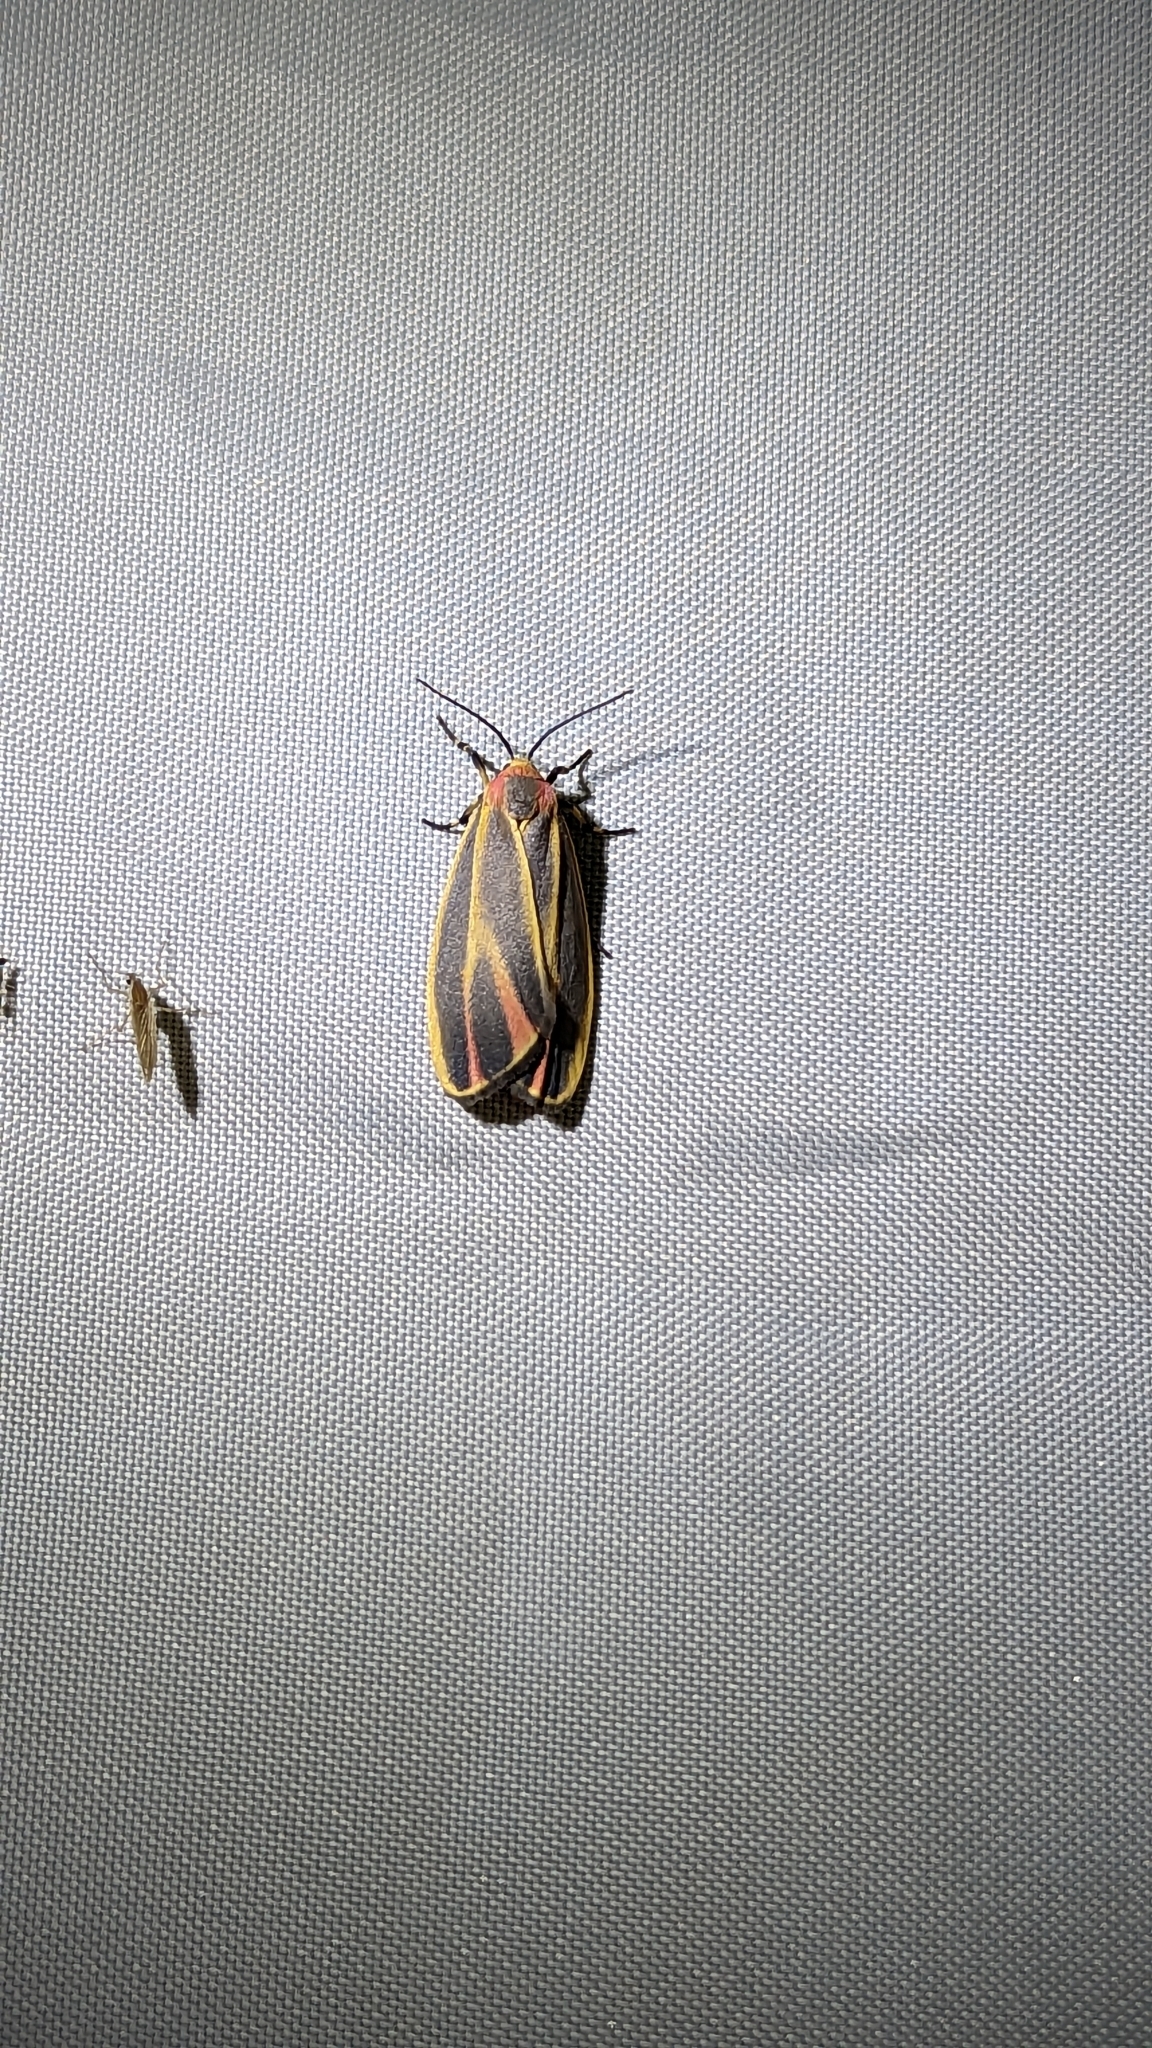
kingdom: Animalia
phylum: Arthropoda
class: Insecta
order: Lepidoptera
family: Erebidae
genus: Hypoprepia
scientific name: Hypoprepia fucosa
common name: Painted lichen moth
